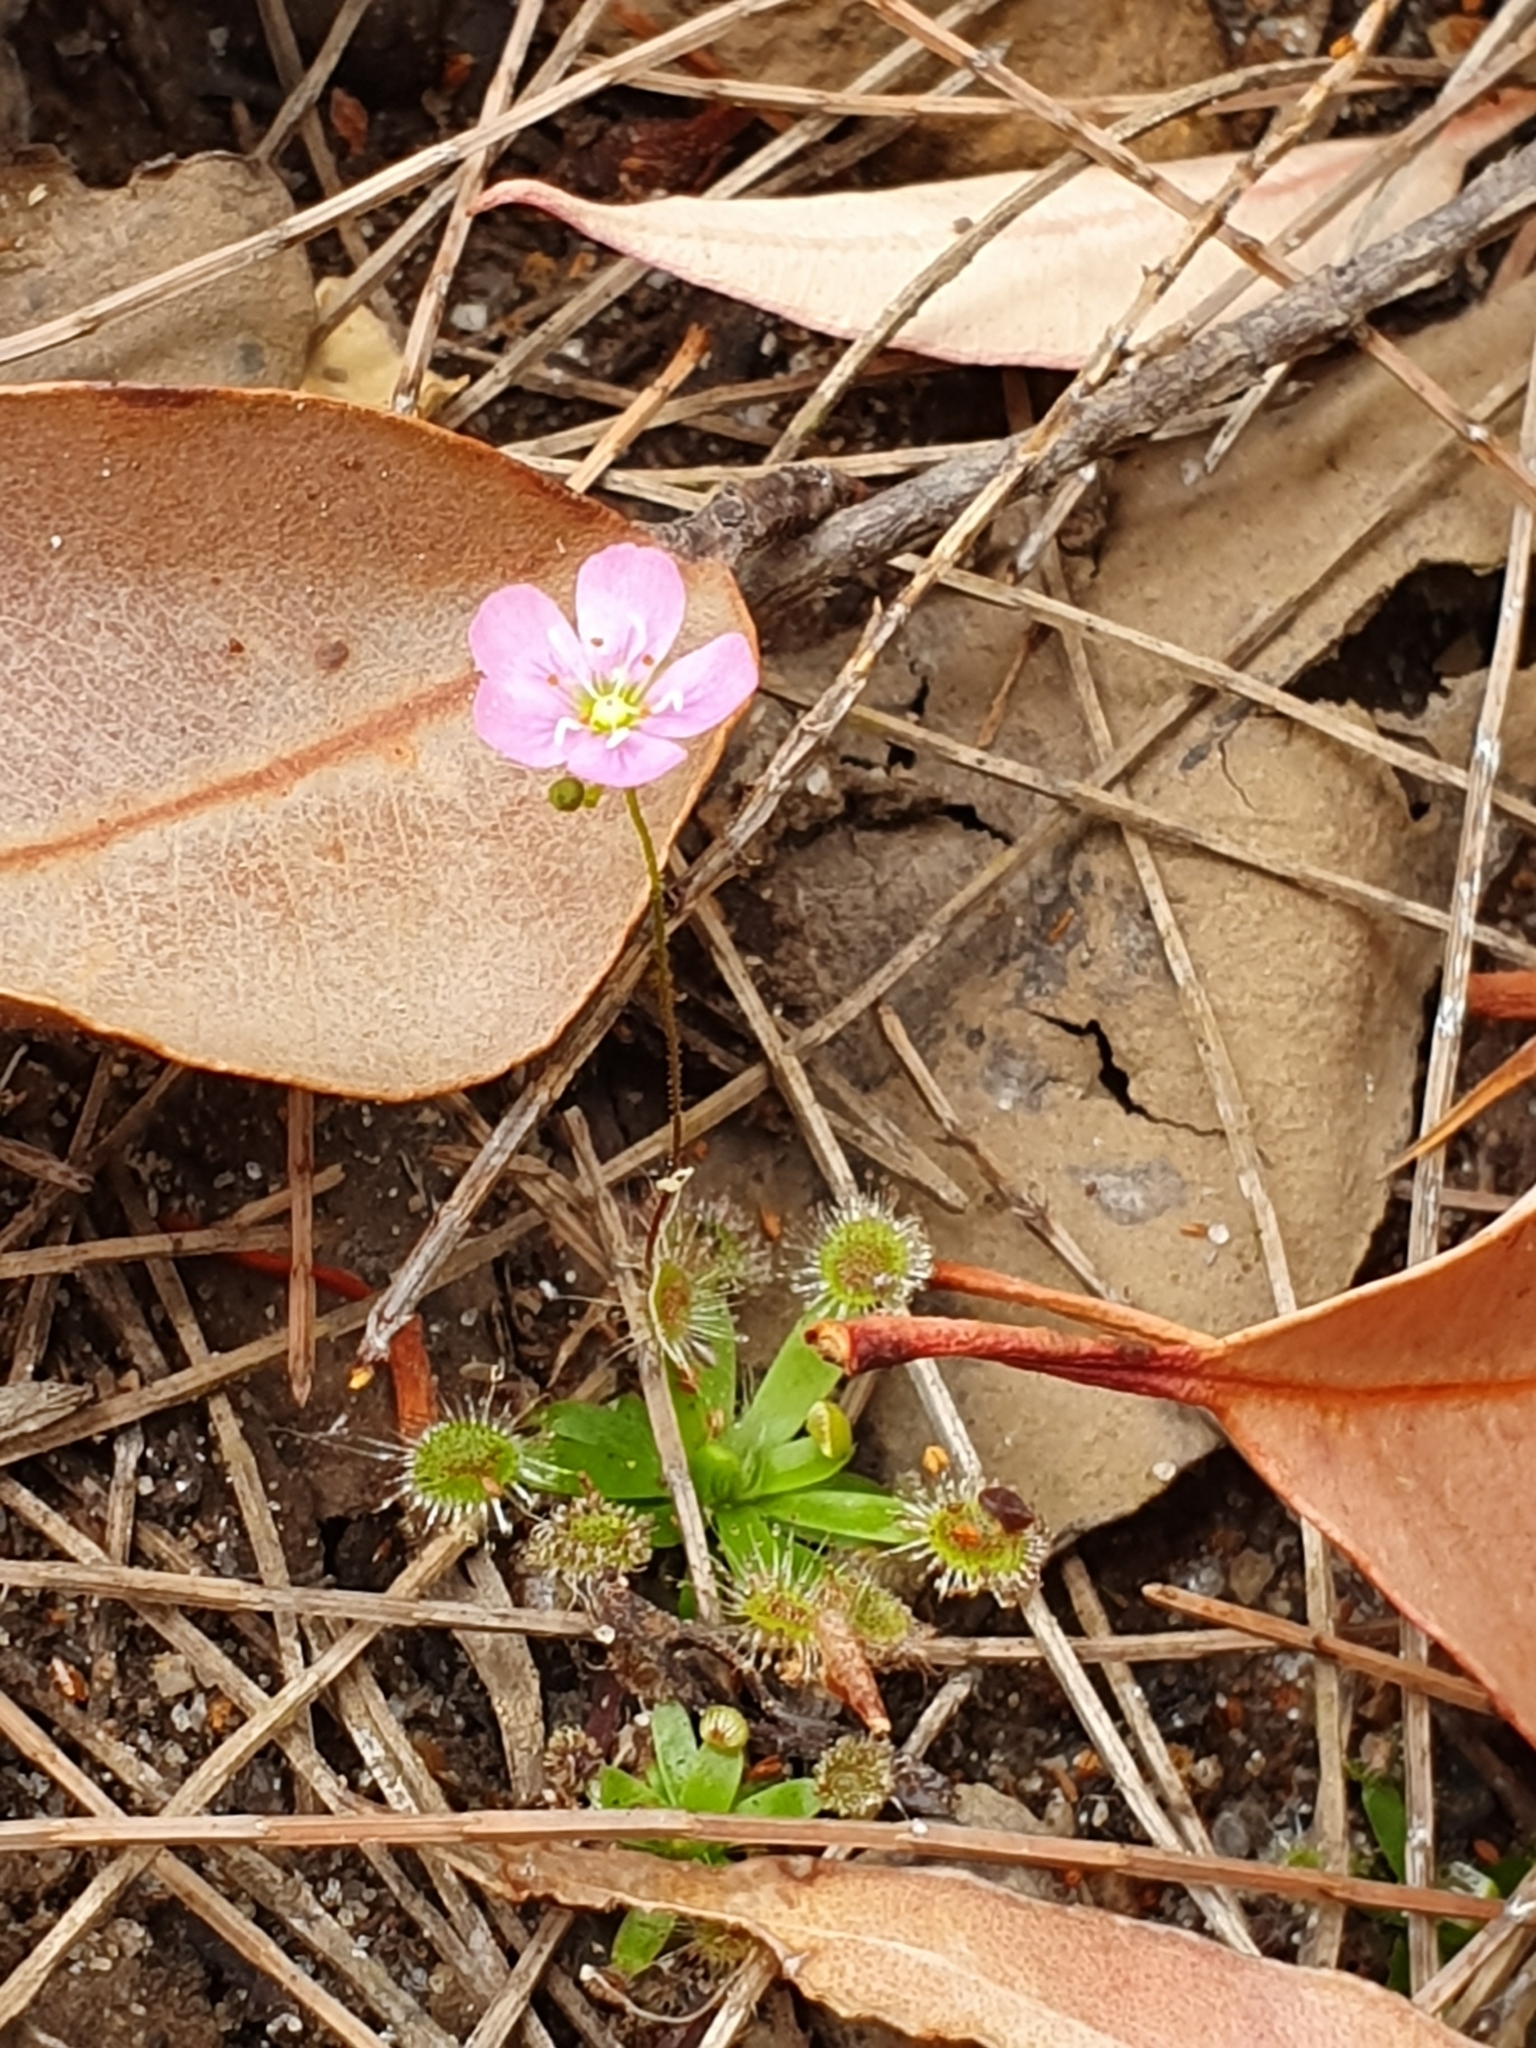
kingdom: Plantae
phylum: Tracheophyta
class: Magnoliopsida
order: Caryophyllales
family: Droseraceae
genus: Drosera
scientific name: Drosera pulchella
